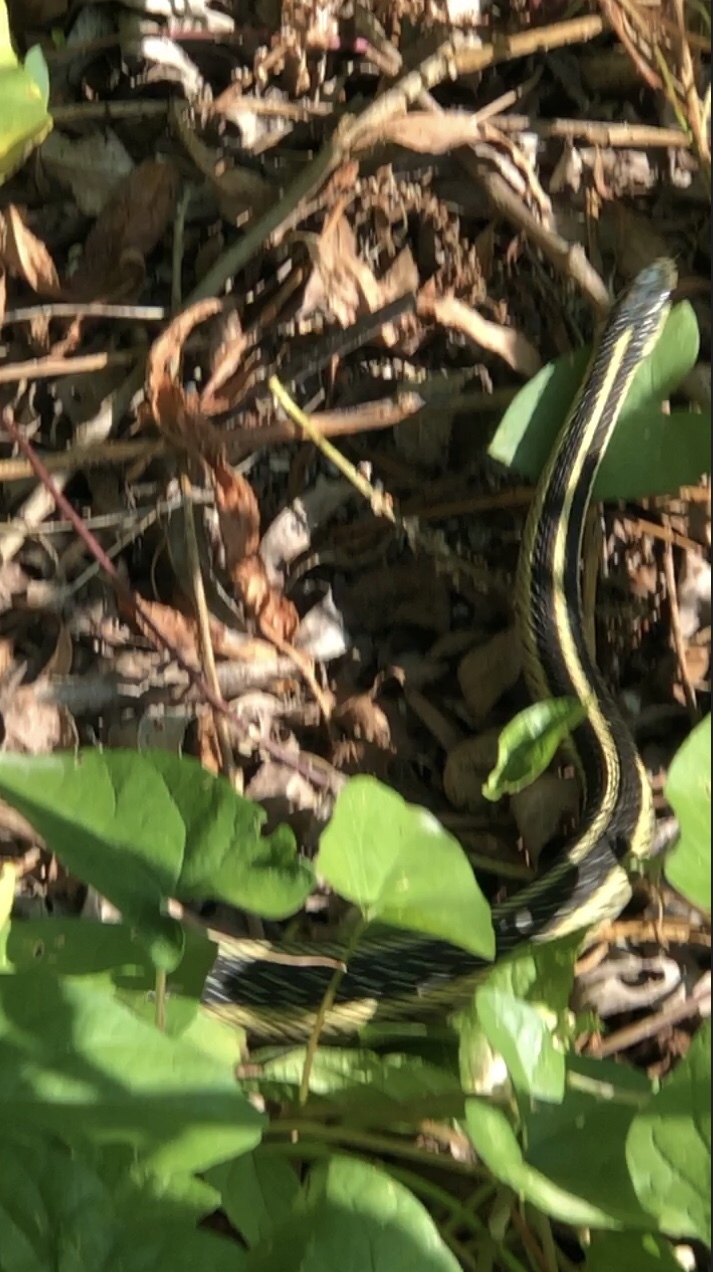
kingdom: Animalia
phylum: Chordata
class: Squamata
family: Colubridae
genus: Thamnophis
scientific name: Thamnophis sirtalis
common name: Common garter snake
